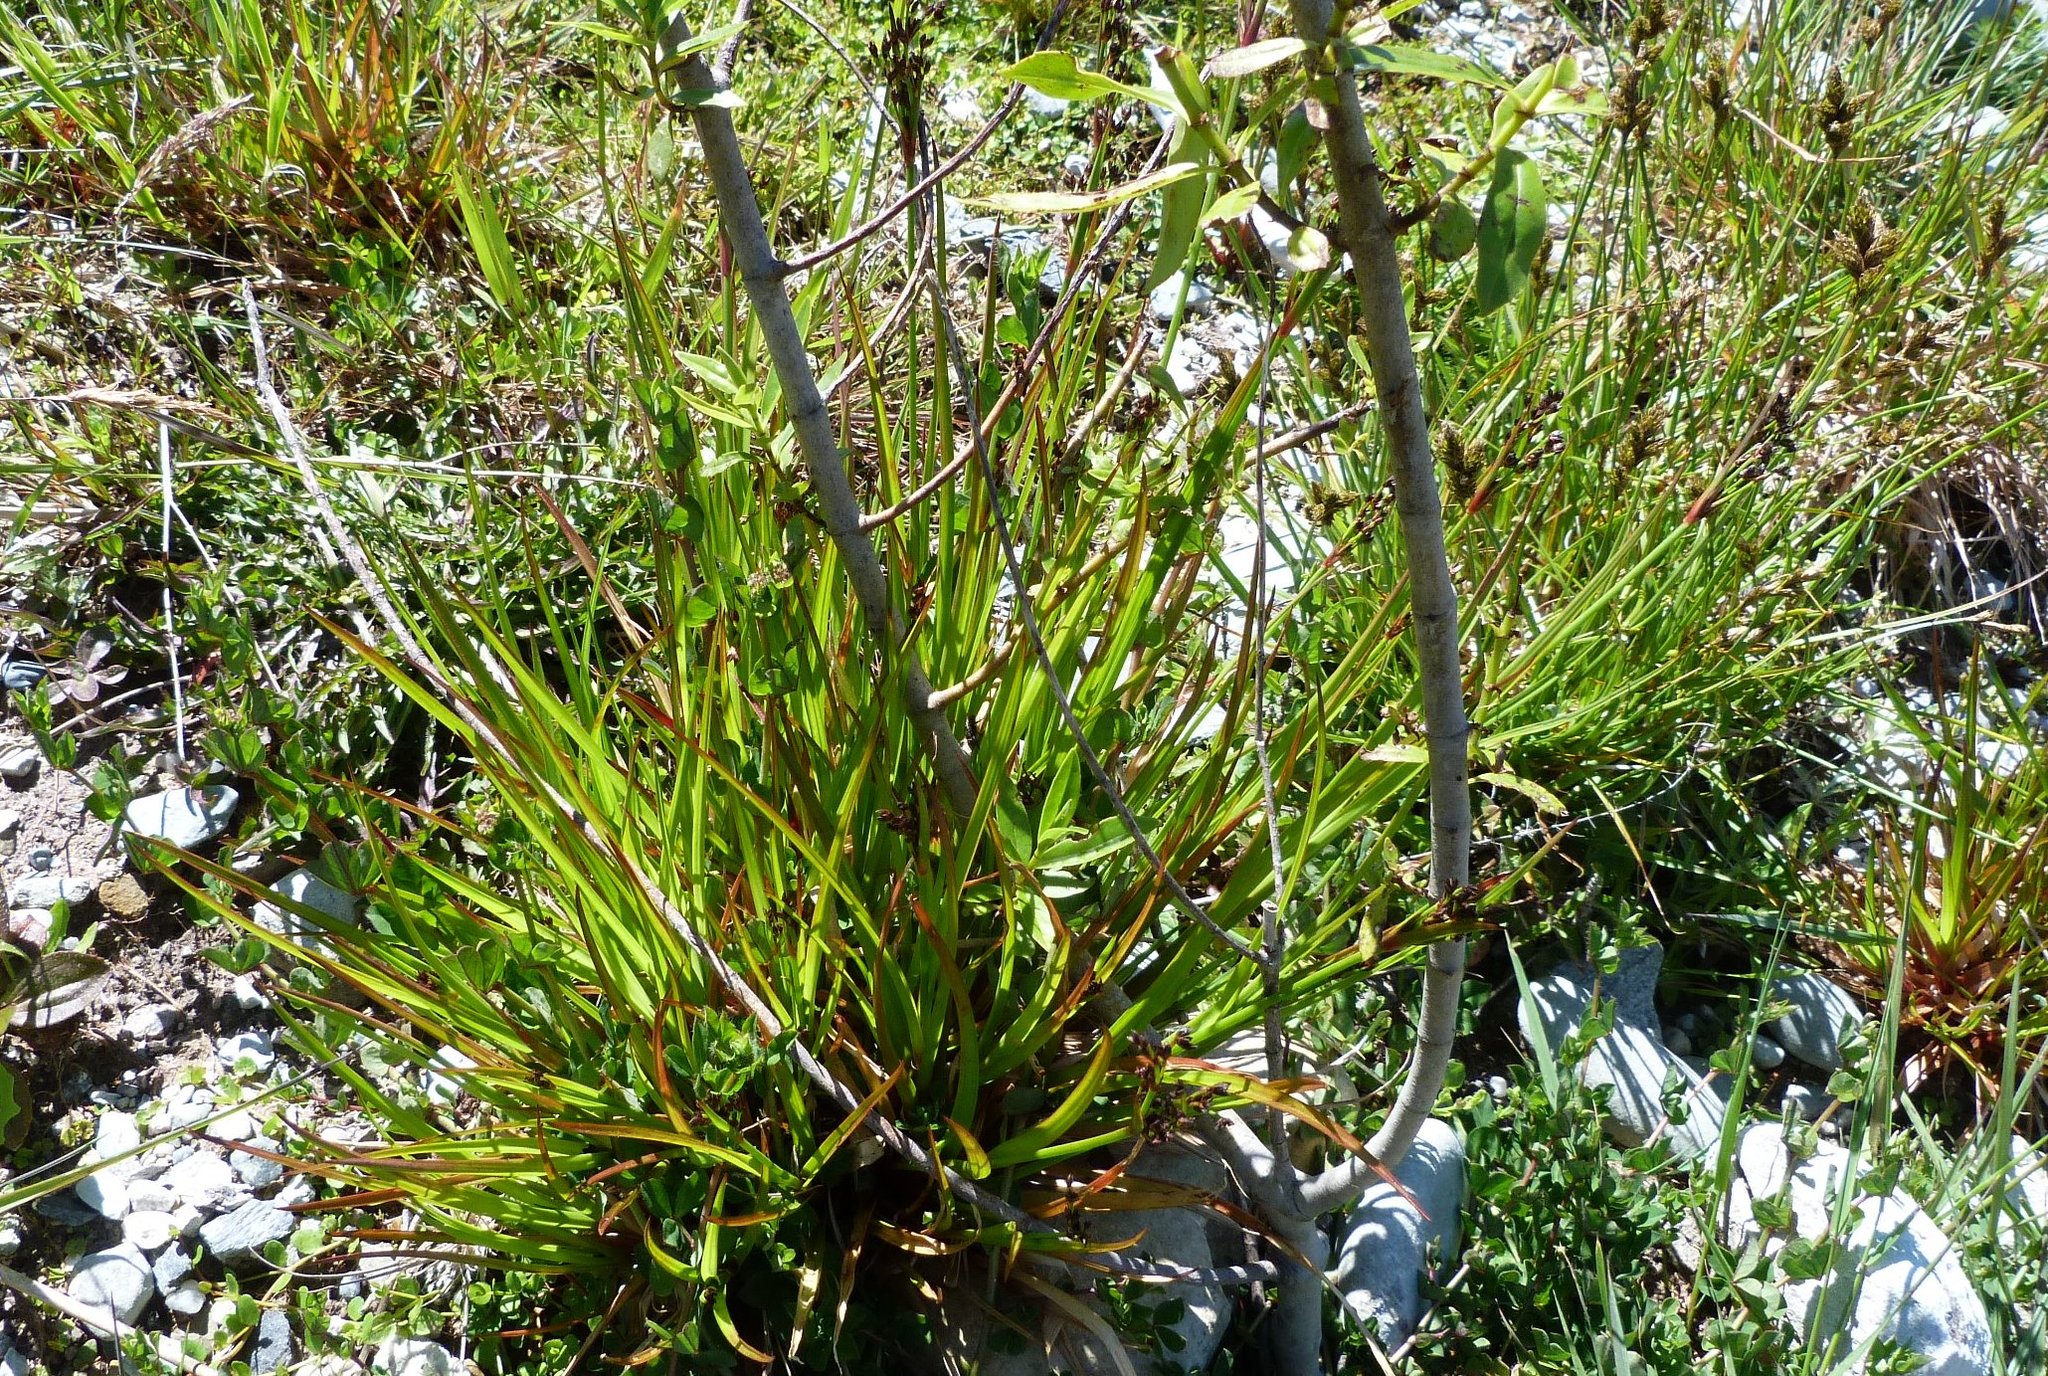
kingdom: Plantae
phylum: Tracheophyta
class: Liliopsida
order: Poales
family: Juncaceae
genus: Juncus
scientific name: Juncus planifolius
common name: Broadleaf rush
